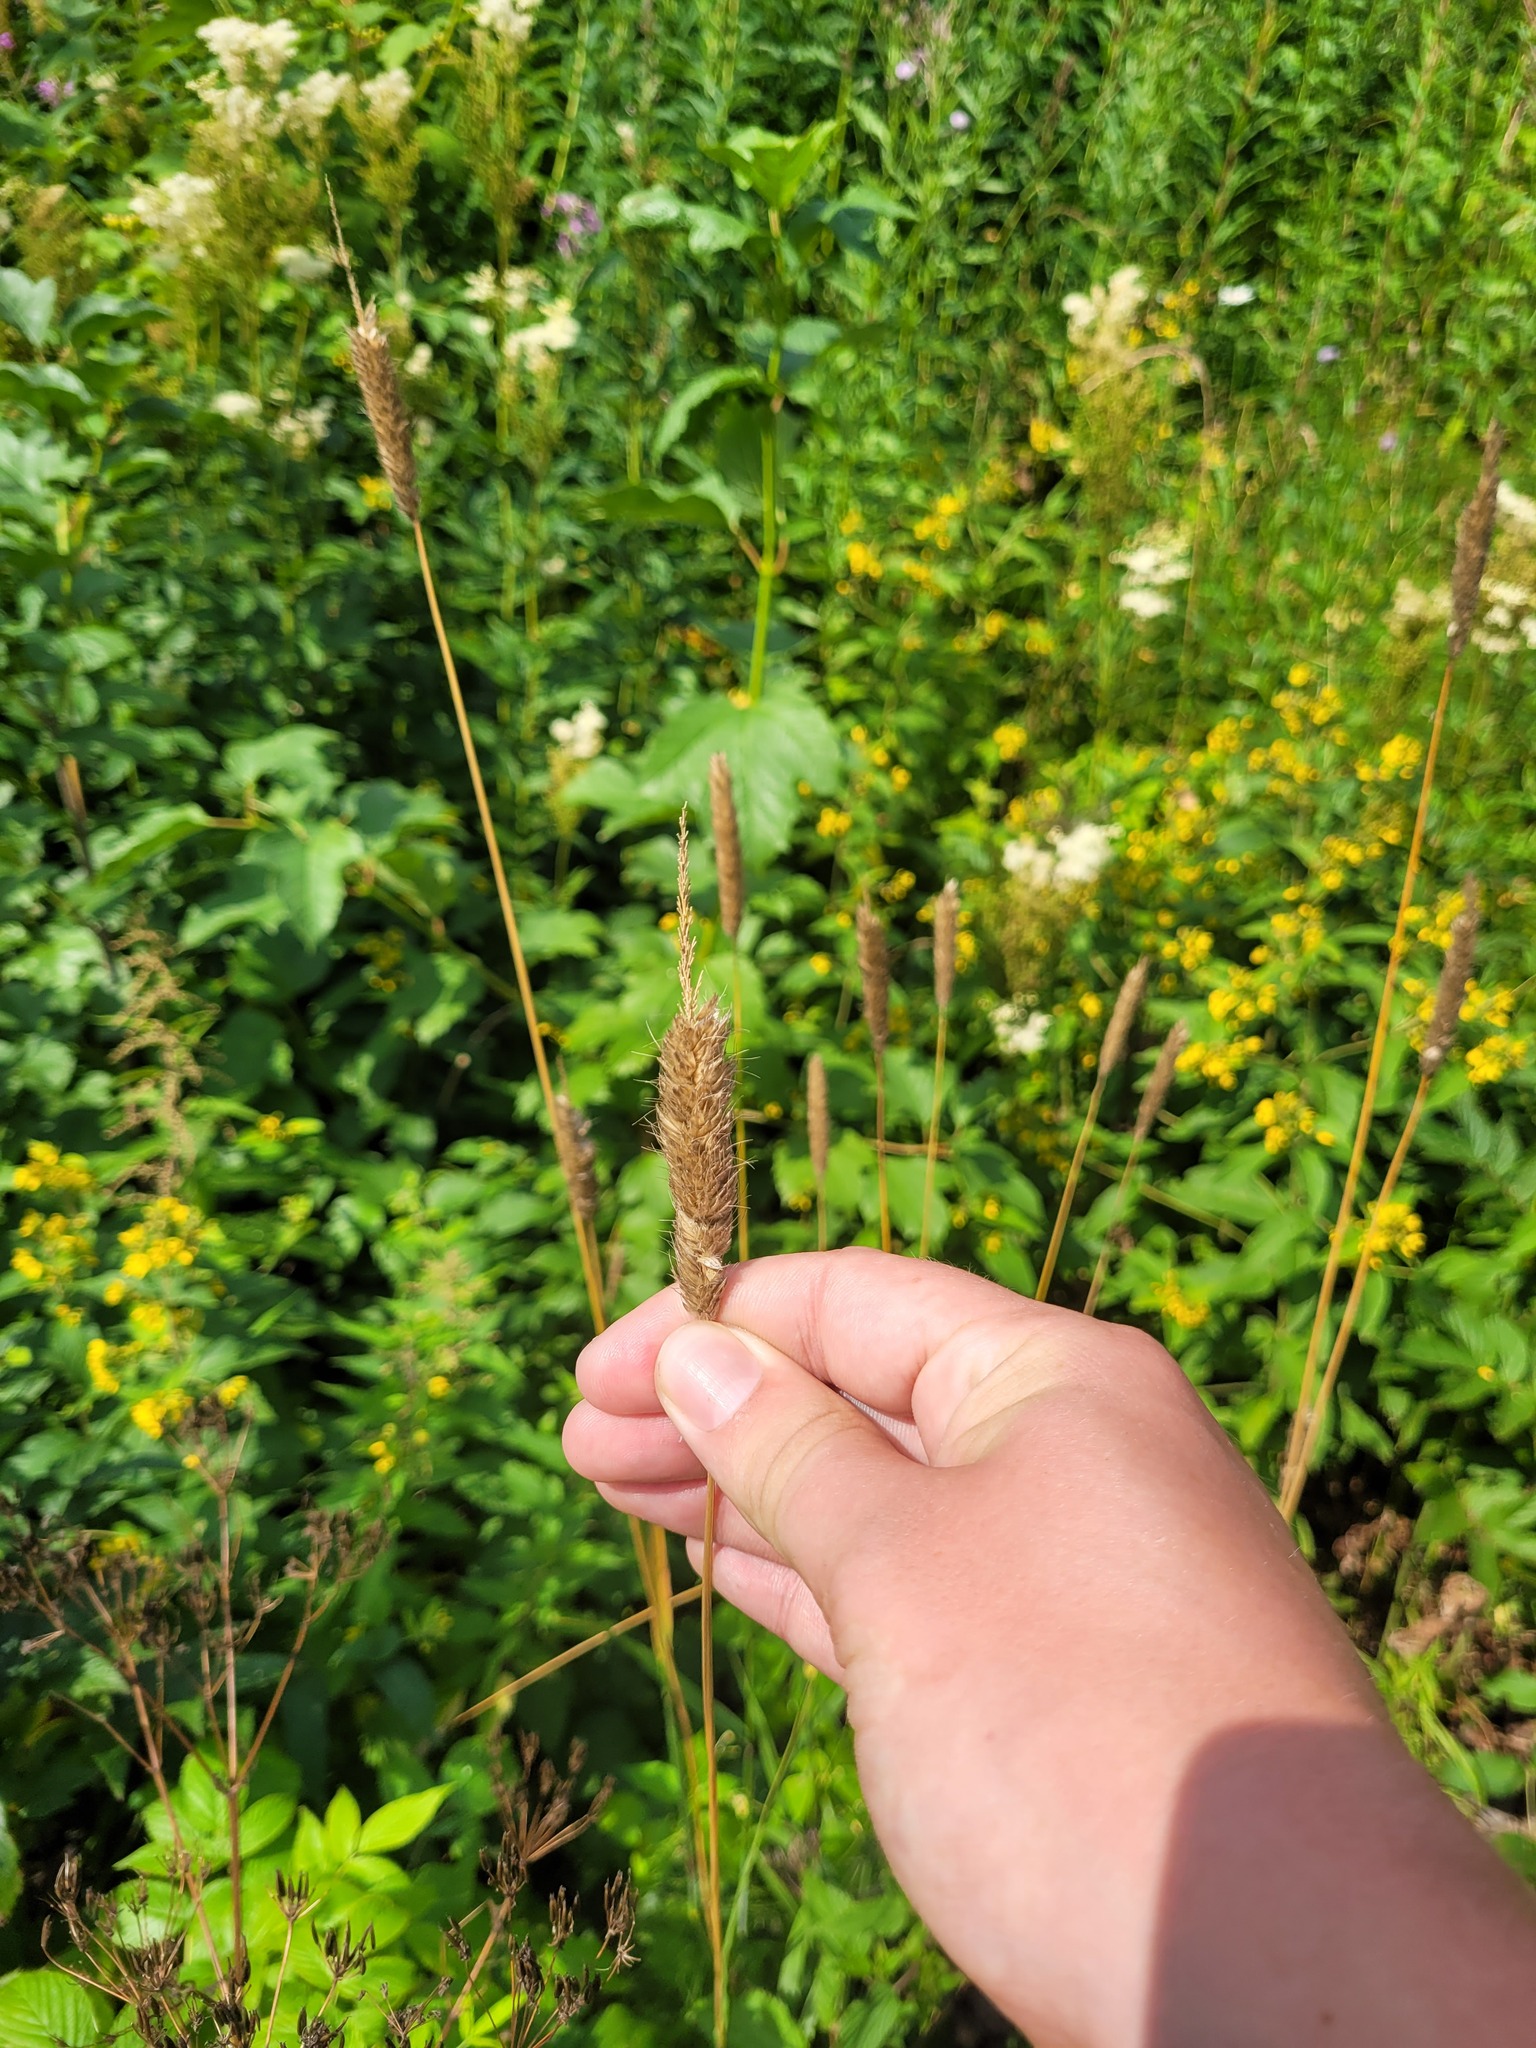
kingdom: Plantae
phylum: Tracheophyta
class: Liliopsida
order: Poales
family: Poaceae
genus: Alopecurus
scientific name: Alopecurus pratensis
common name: Meadow foxtail
